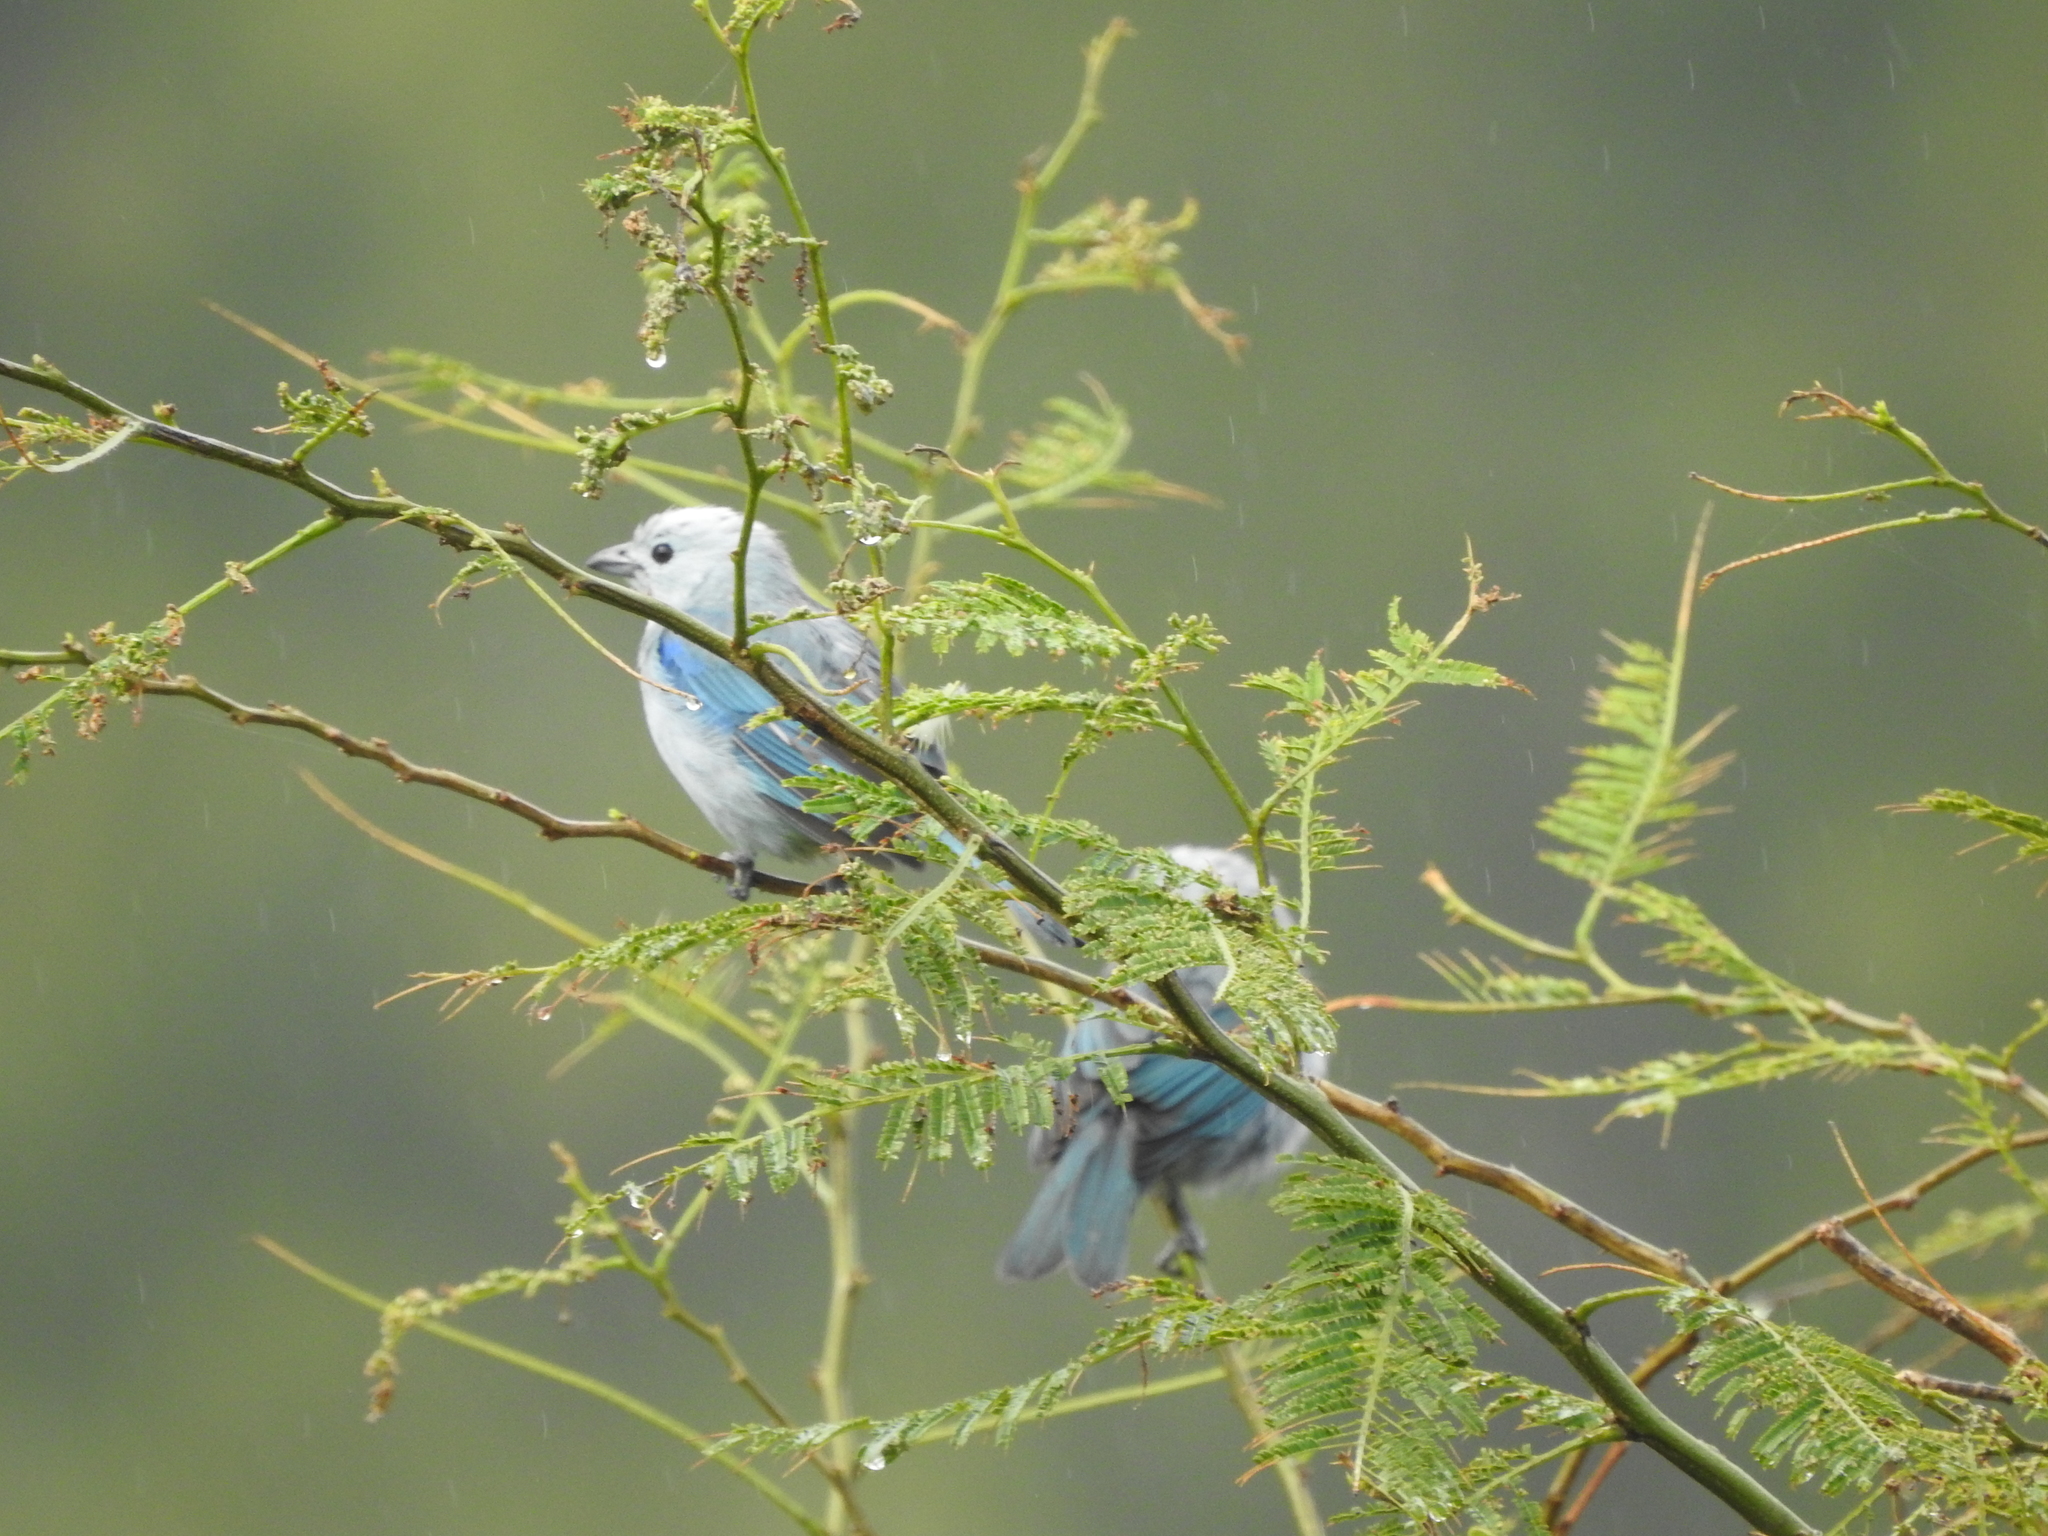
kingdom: Animalia
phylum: Chordata
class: Aves
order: Passeriformes
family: Thraupidae
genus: Thraupis
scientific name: Thraupis episcopus
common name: Blue-grey tanager
